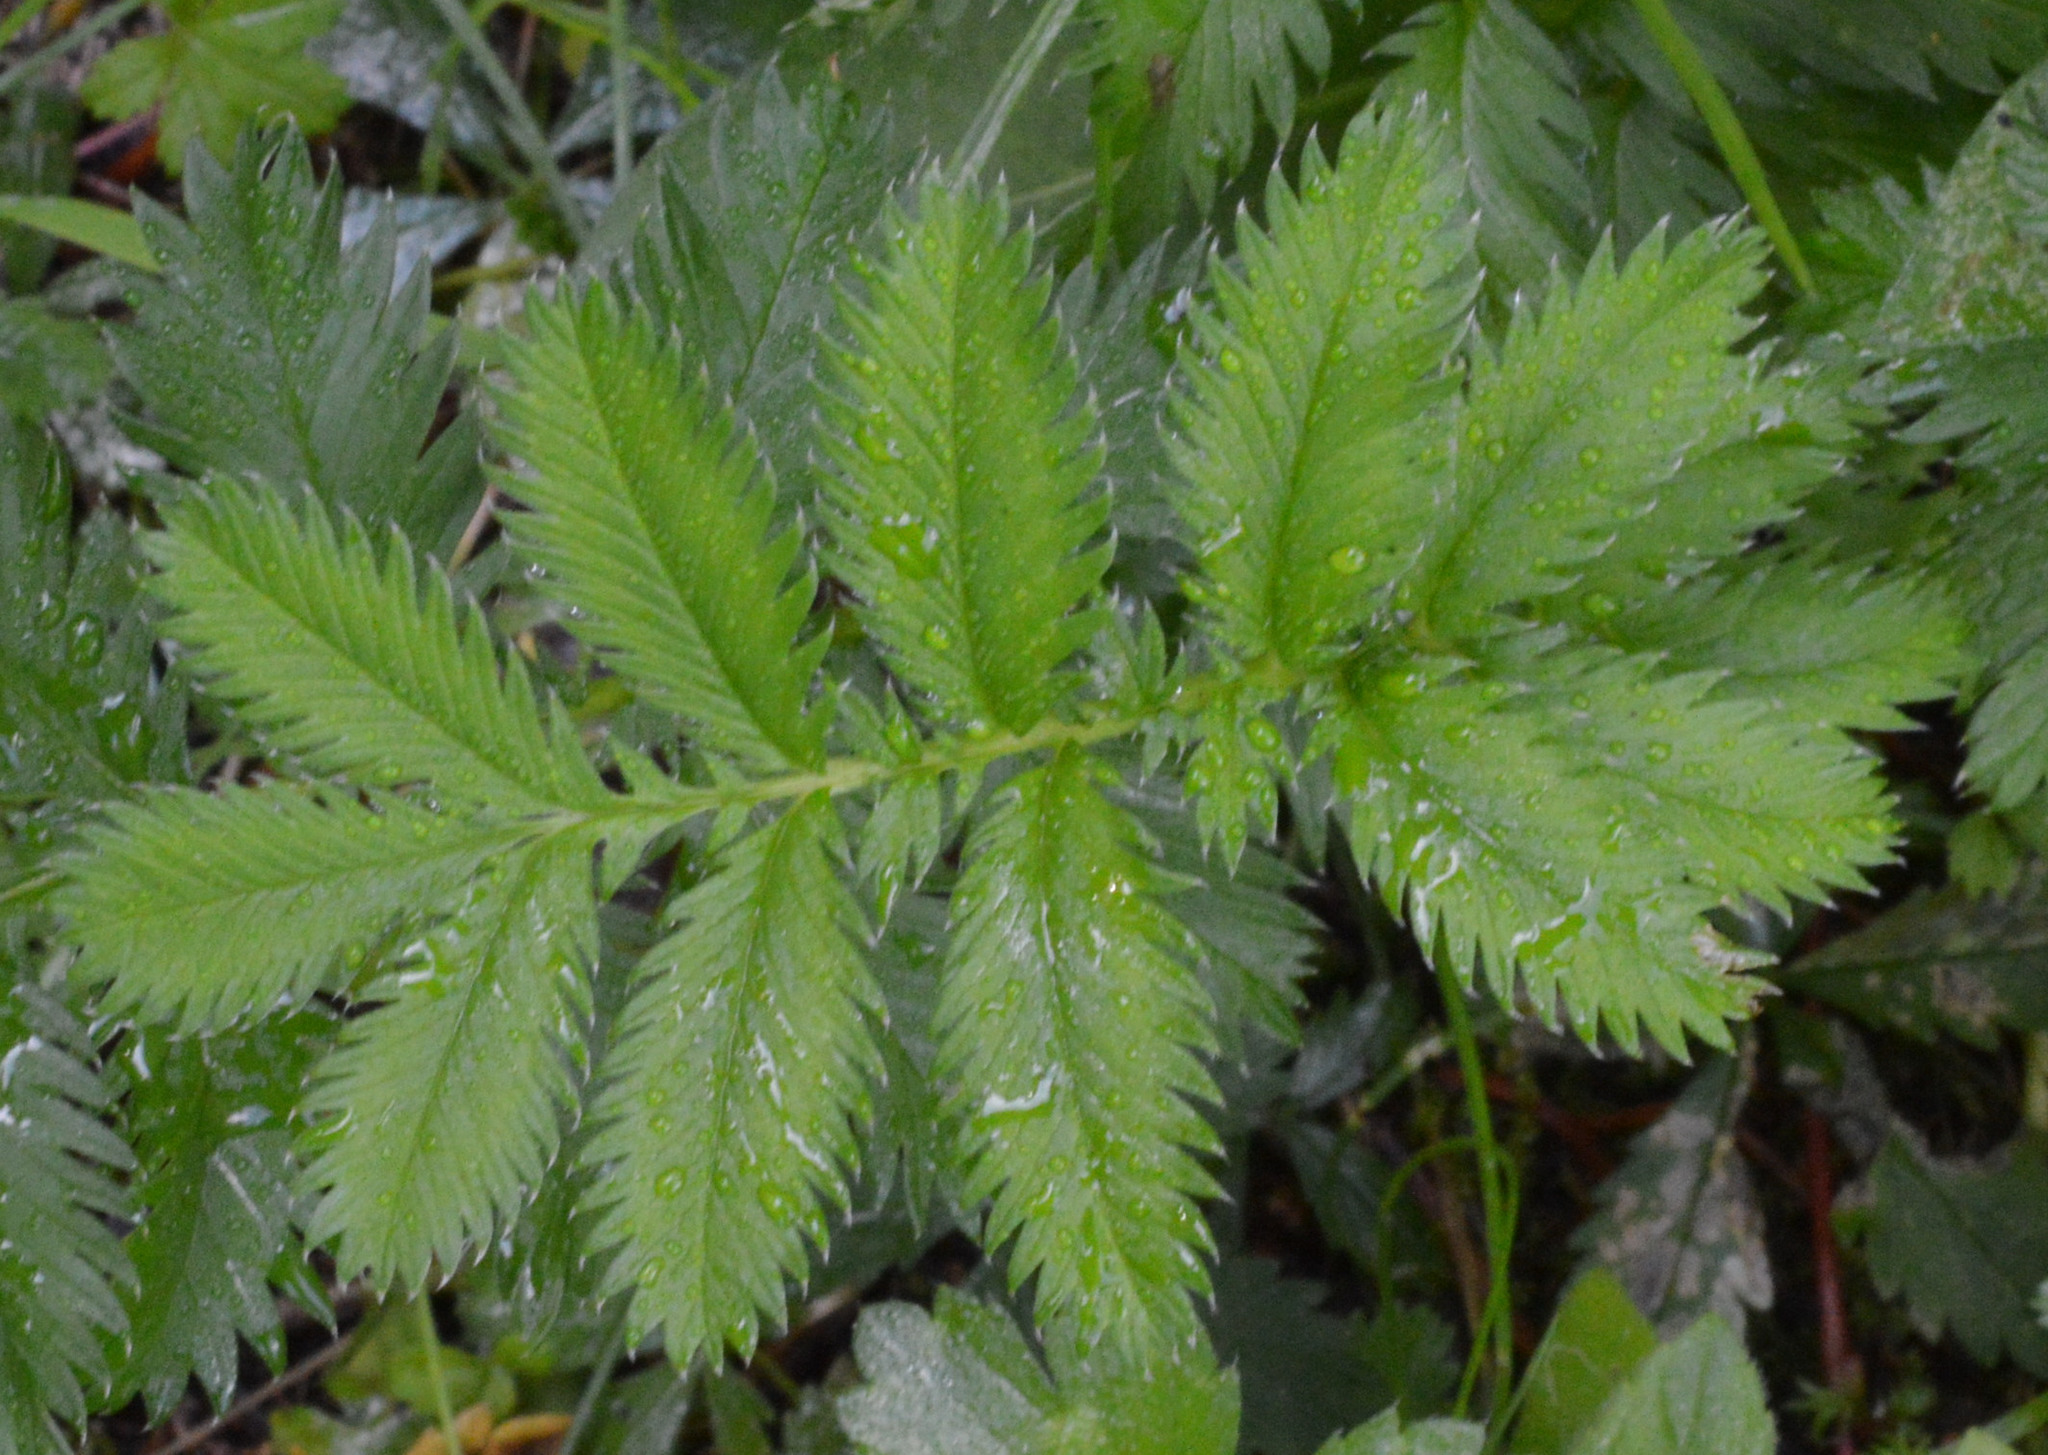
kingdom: Plantae
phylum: Tracheophyta
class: Magnoliopsida
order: Rosales
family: Rosaceae
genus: Argentina
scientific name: Argentina anserina
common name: Common silverweed
